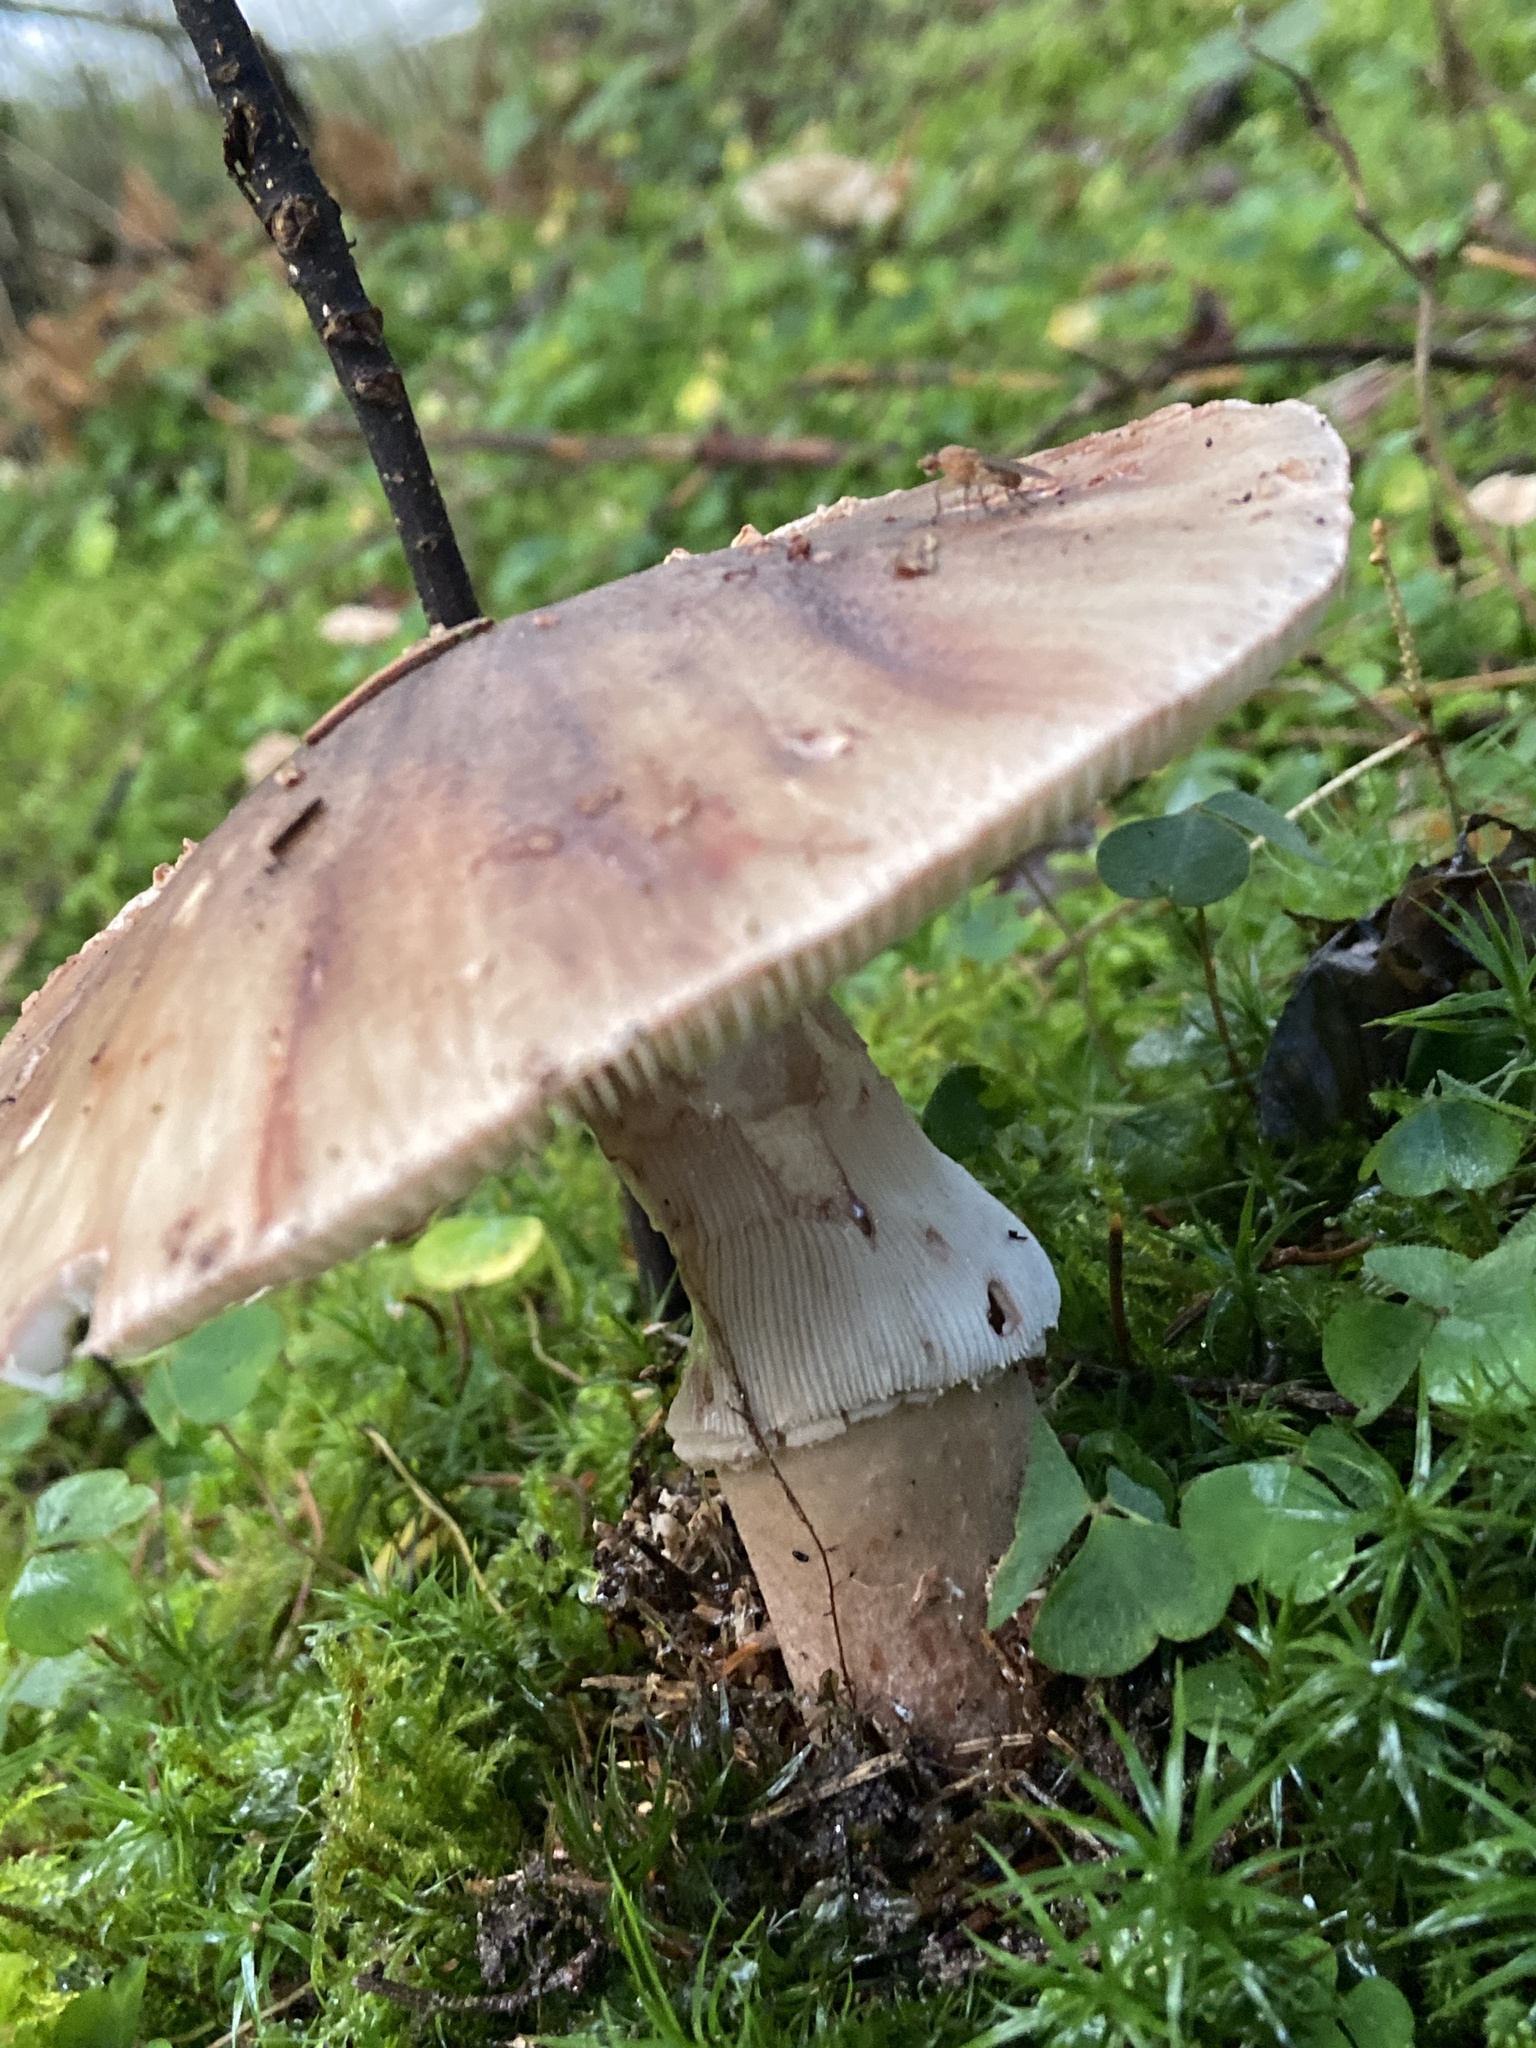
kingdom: Fungi
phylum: Basidiomycota
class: Agaricomycetes
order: Agaricales
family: Amanitaceae
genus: Amanita
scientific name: Amanita rubescens
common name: Blusher
